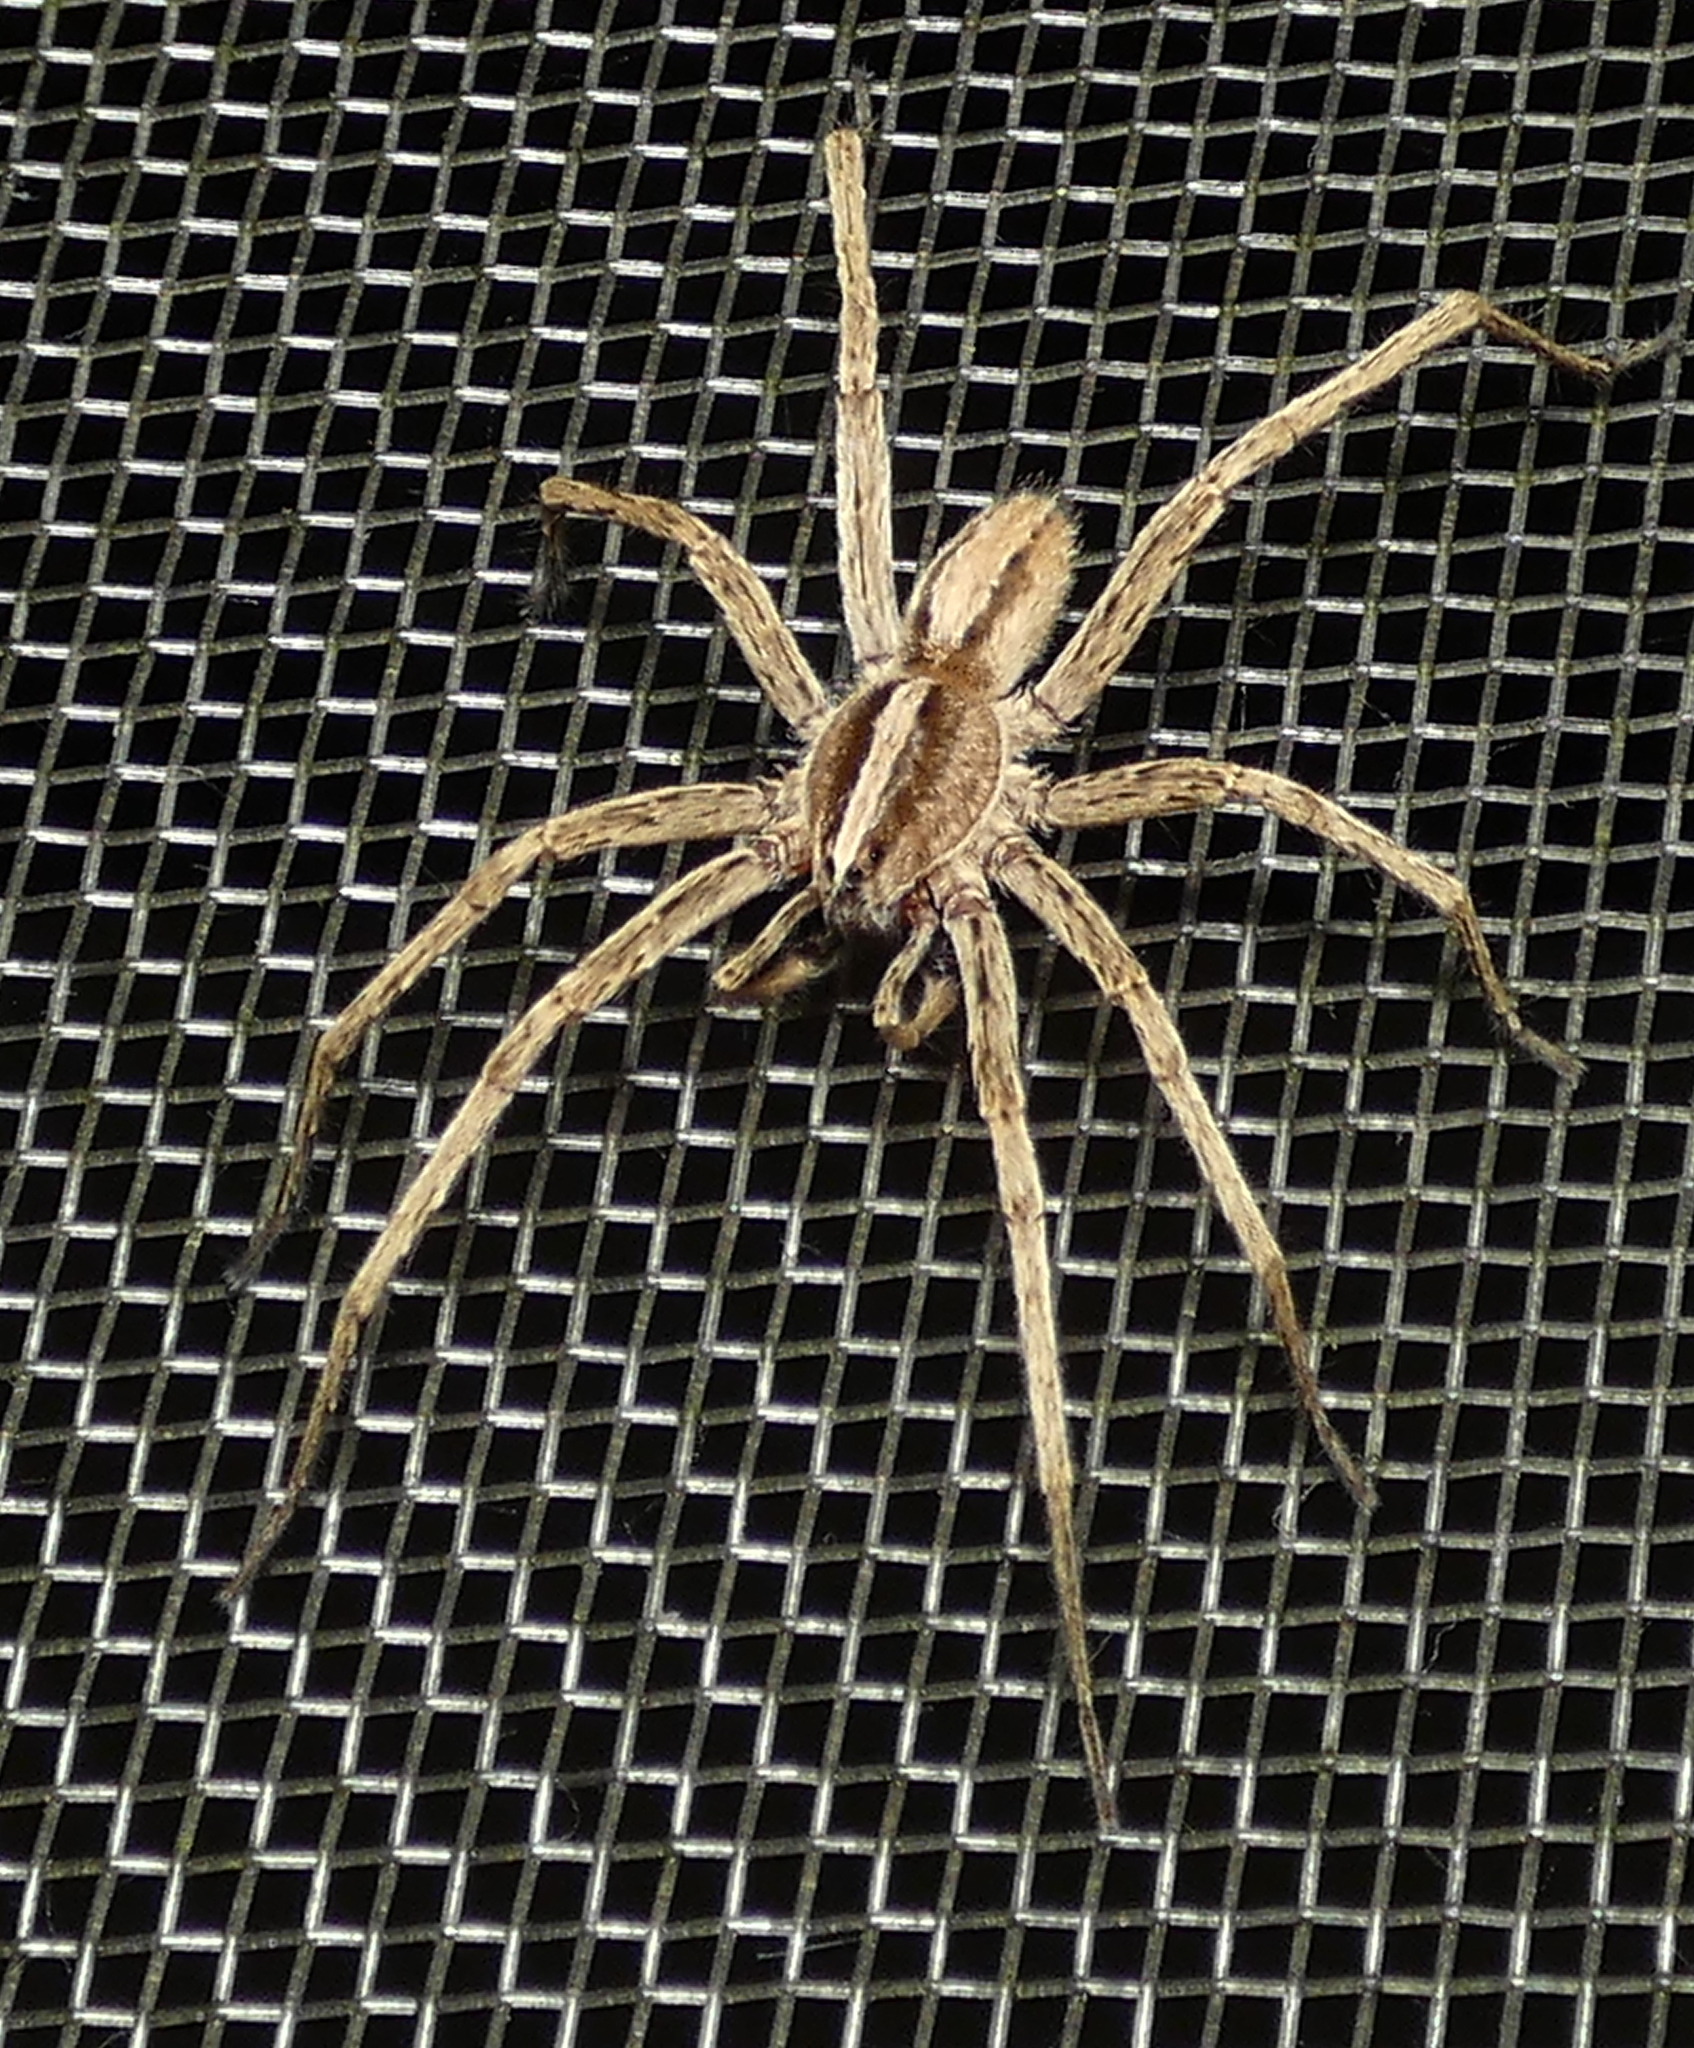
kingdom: Animalia
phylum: Arthropoda
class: Arachnida
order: Araneae
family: Ctenidae
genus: Parabatinga
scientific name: Parabatinga brevipes
